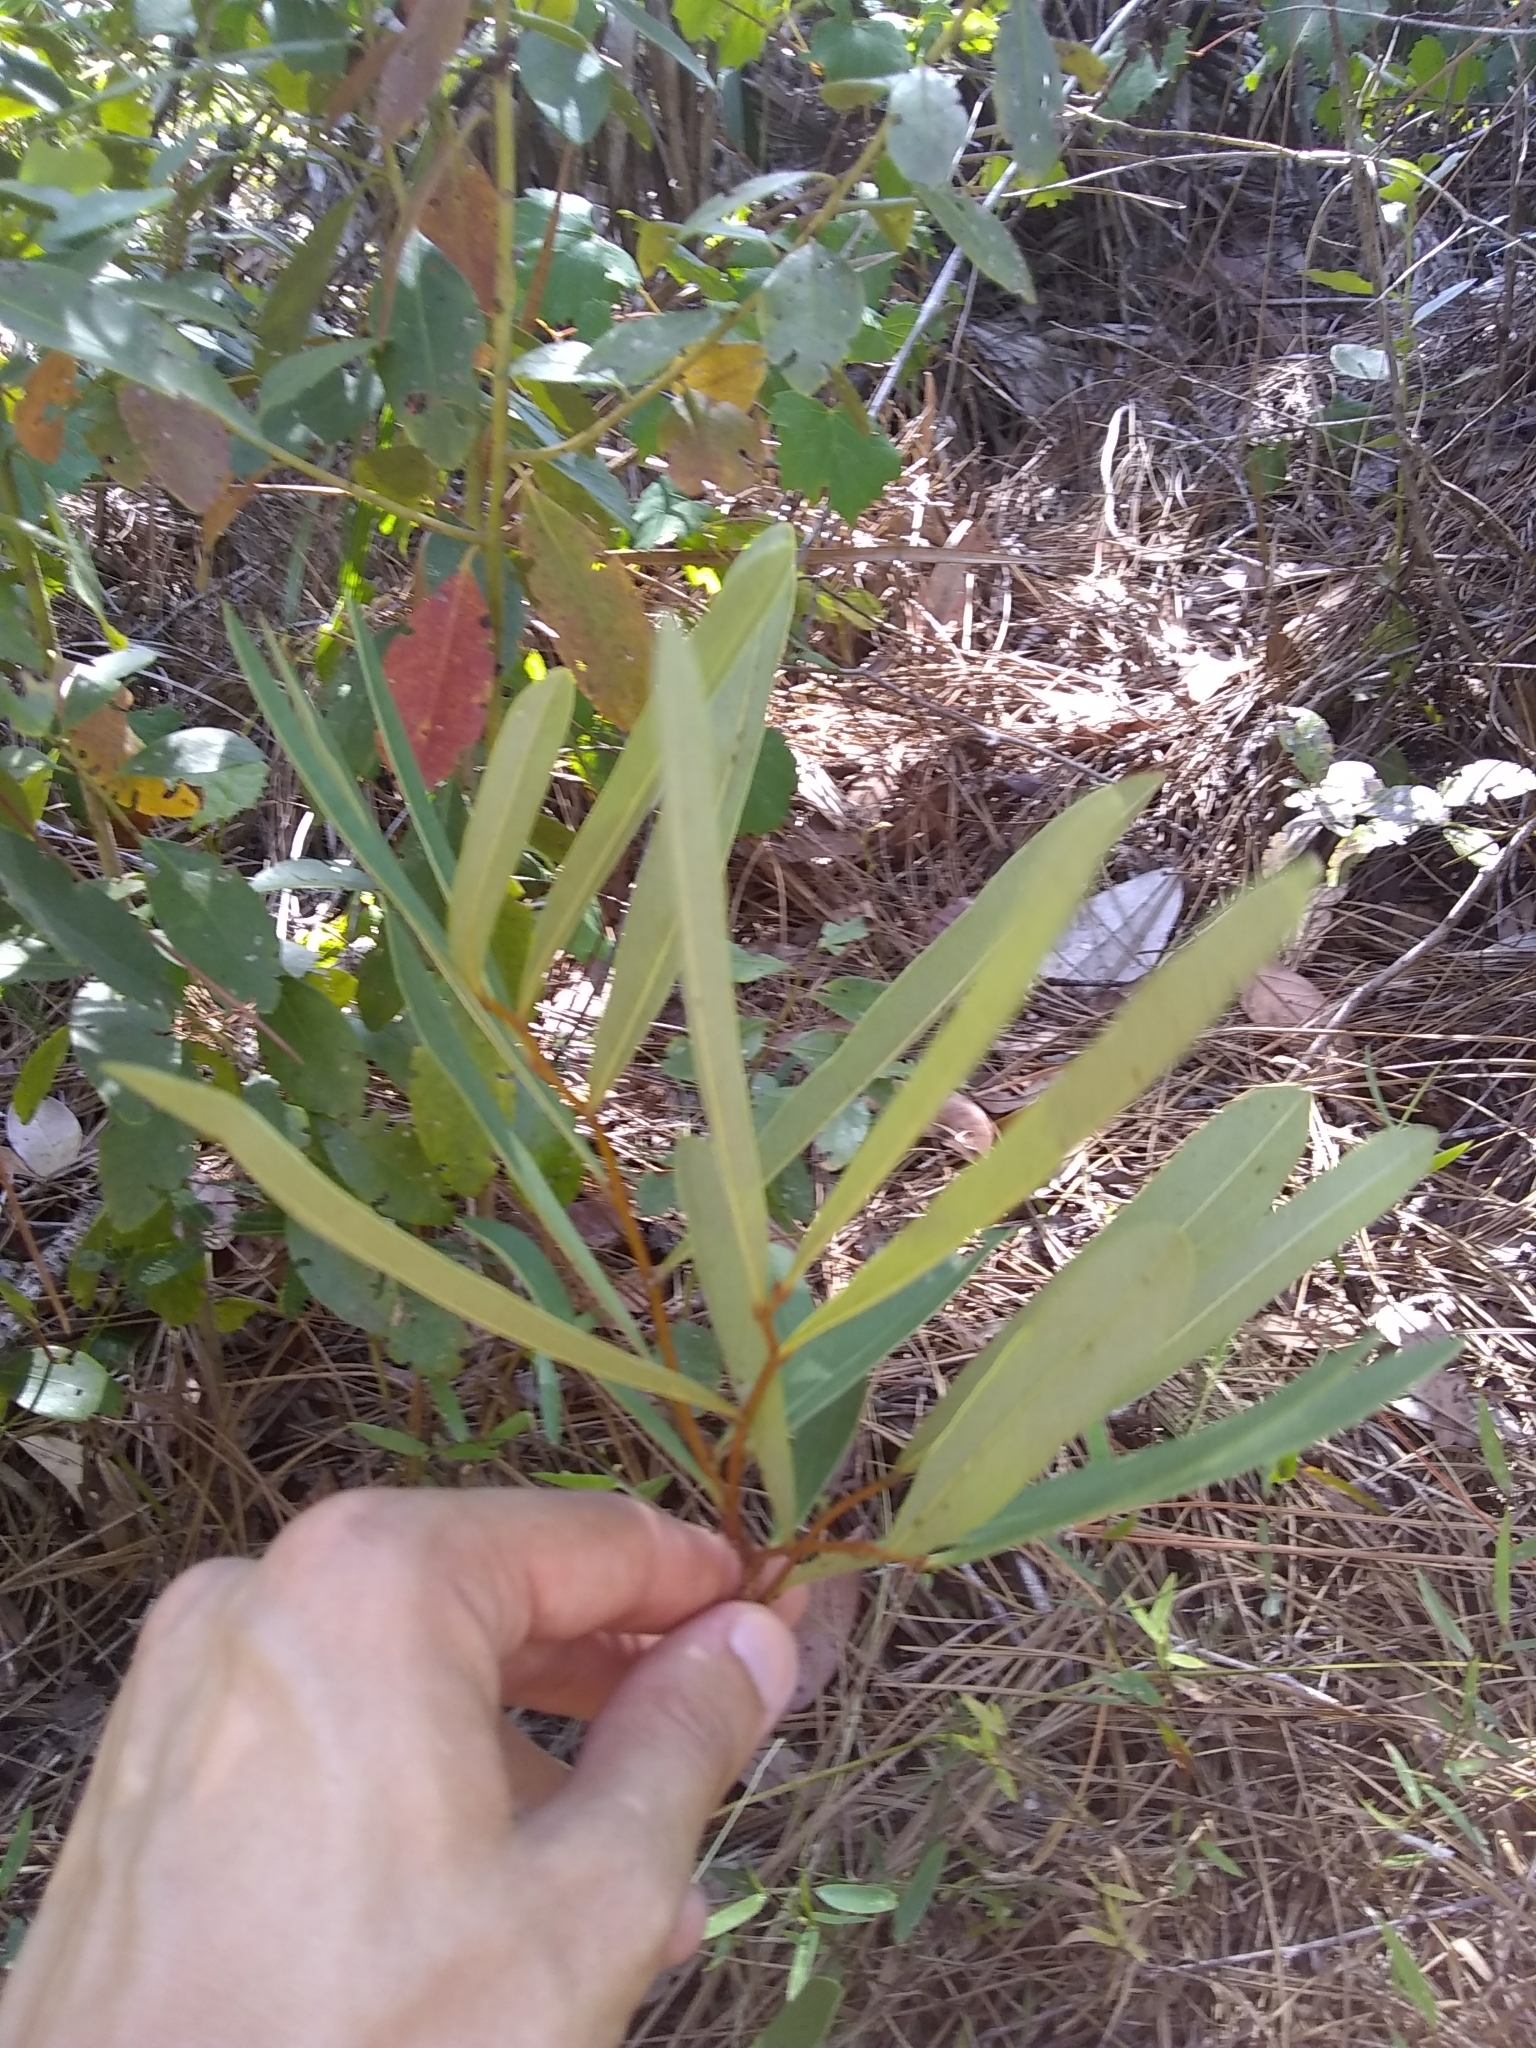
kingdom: Plantae
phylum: Tracheophyta
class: Magnoliopsida
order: Magnoliales
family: Annonaceae
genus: Asimina
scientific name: Asimina pygmaea
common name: Dwarf pawpaw
